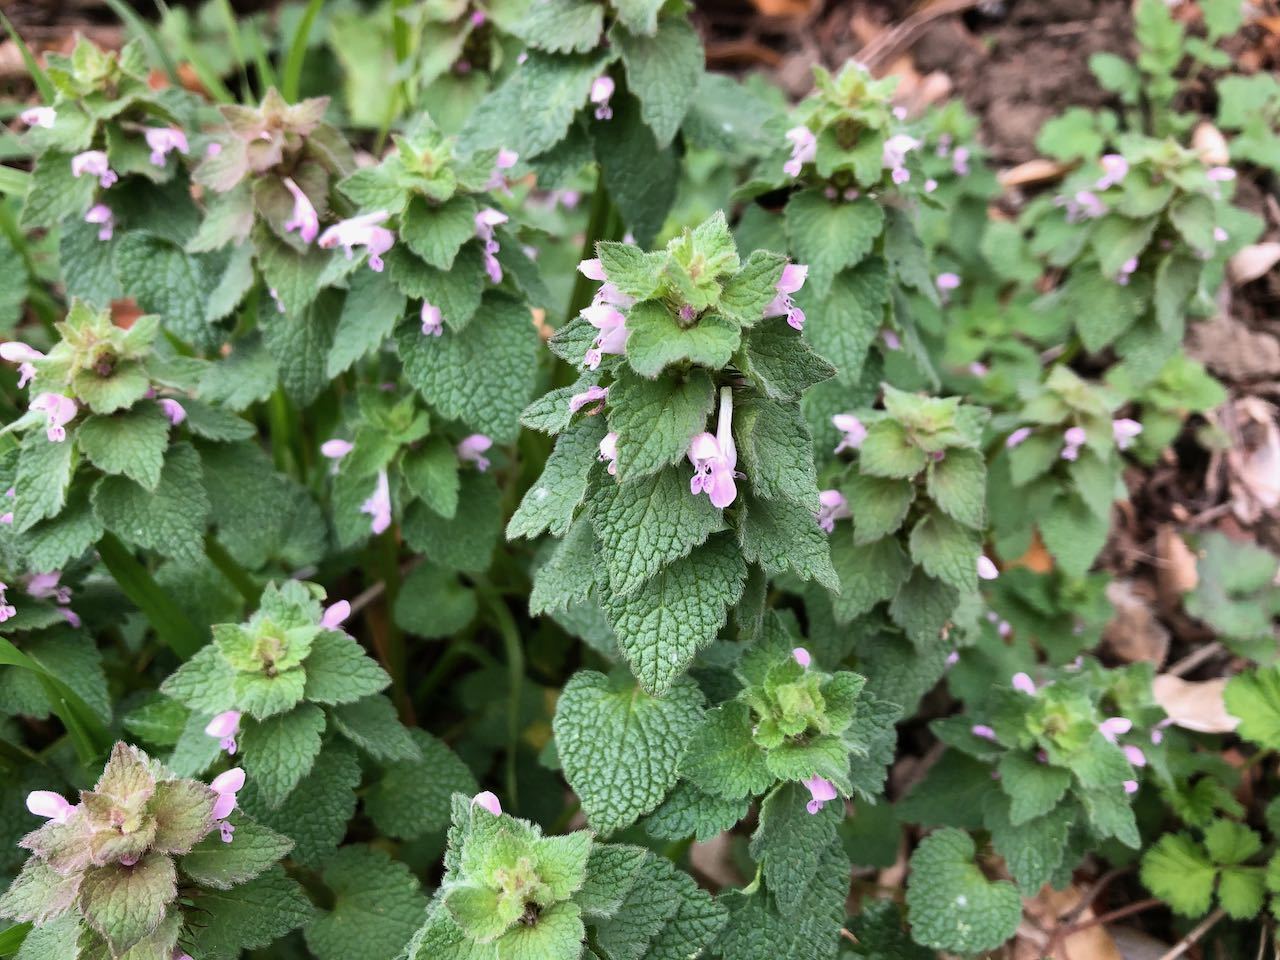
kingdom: Plantae
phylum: Tracheophyta
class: Magnoliopsida
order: Lamiales
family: Lamiaceae
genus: Lamium
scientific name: Lamium purpureum
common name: Red dead-nettle
